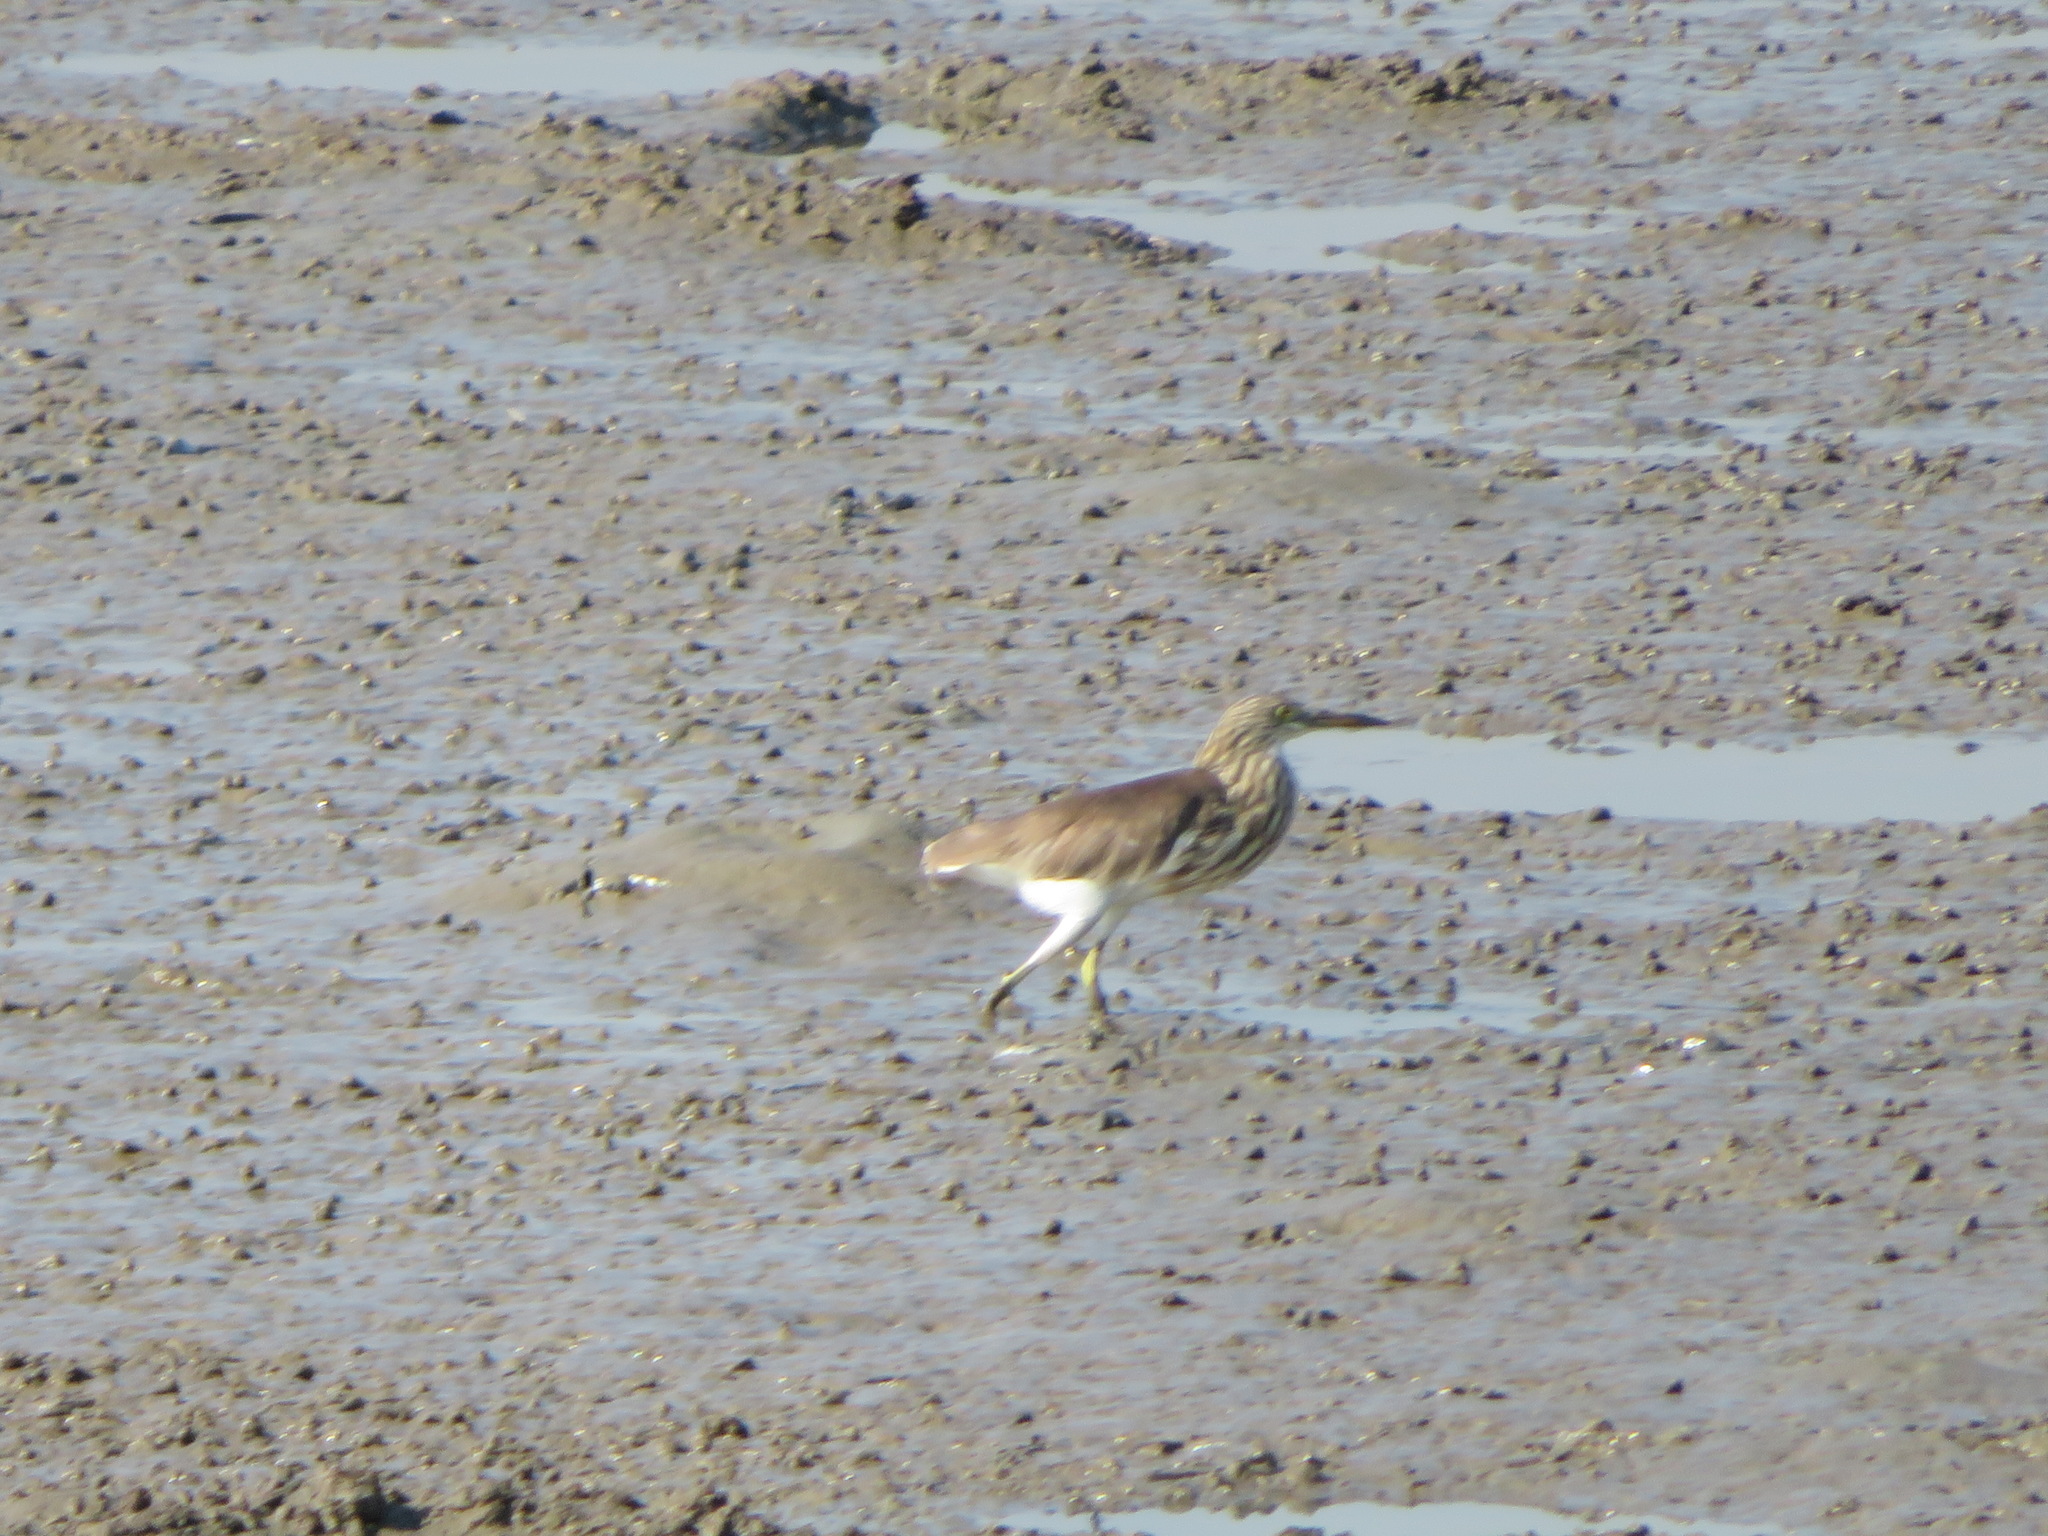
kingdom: Animalia
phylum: Chordata
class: Aves
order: Pelecaniformes
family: Ardeidae
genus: Ardeola
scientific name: Ardeola bacchus
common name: Chinese pond heron
